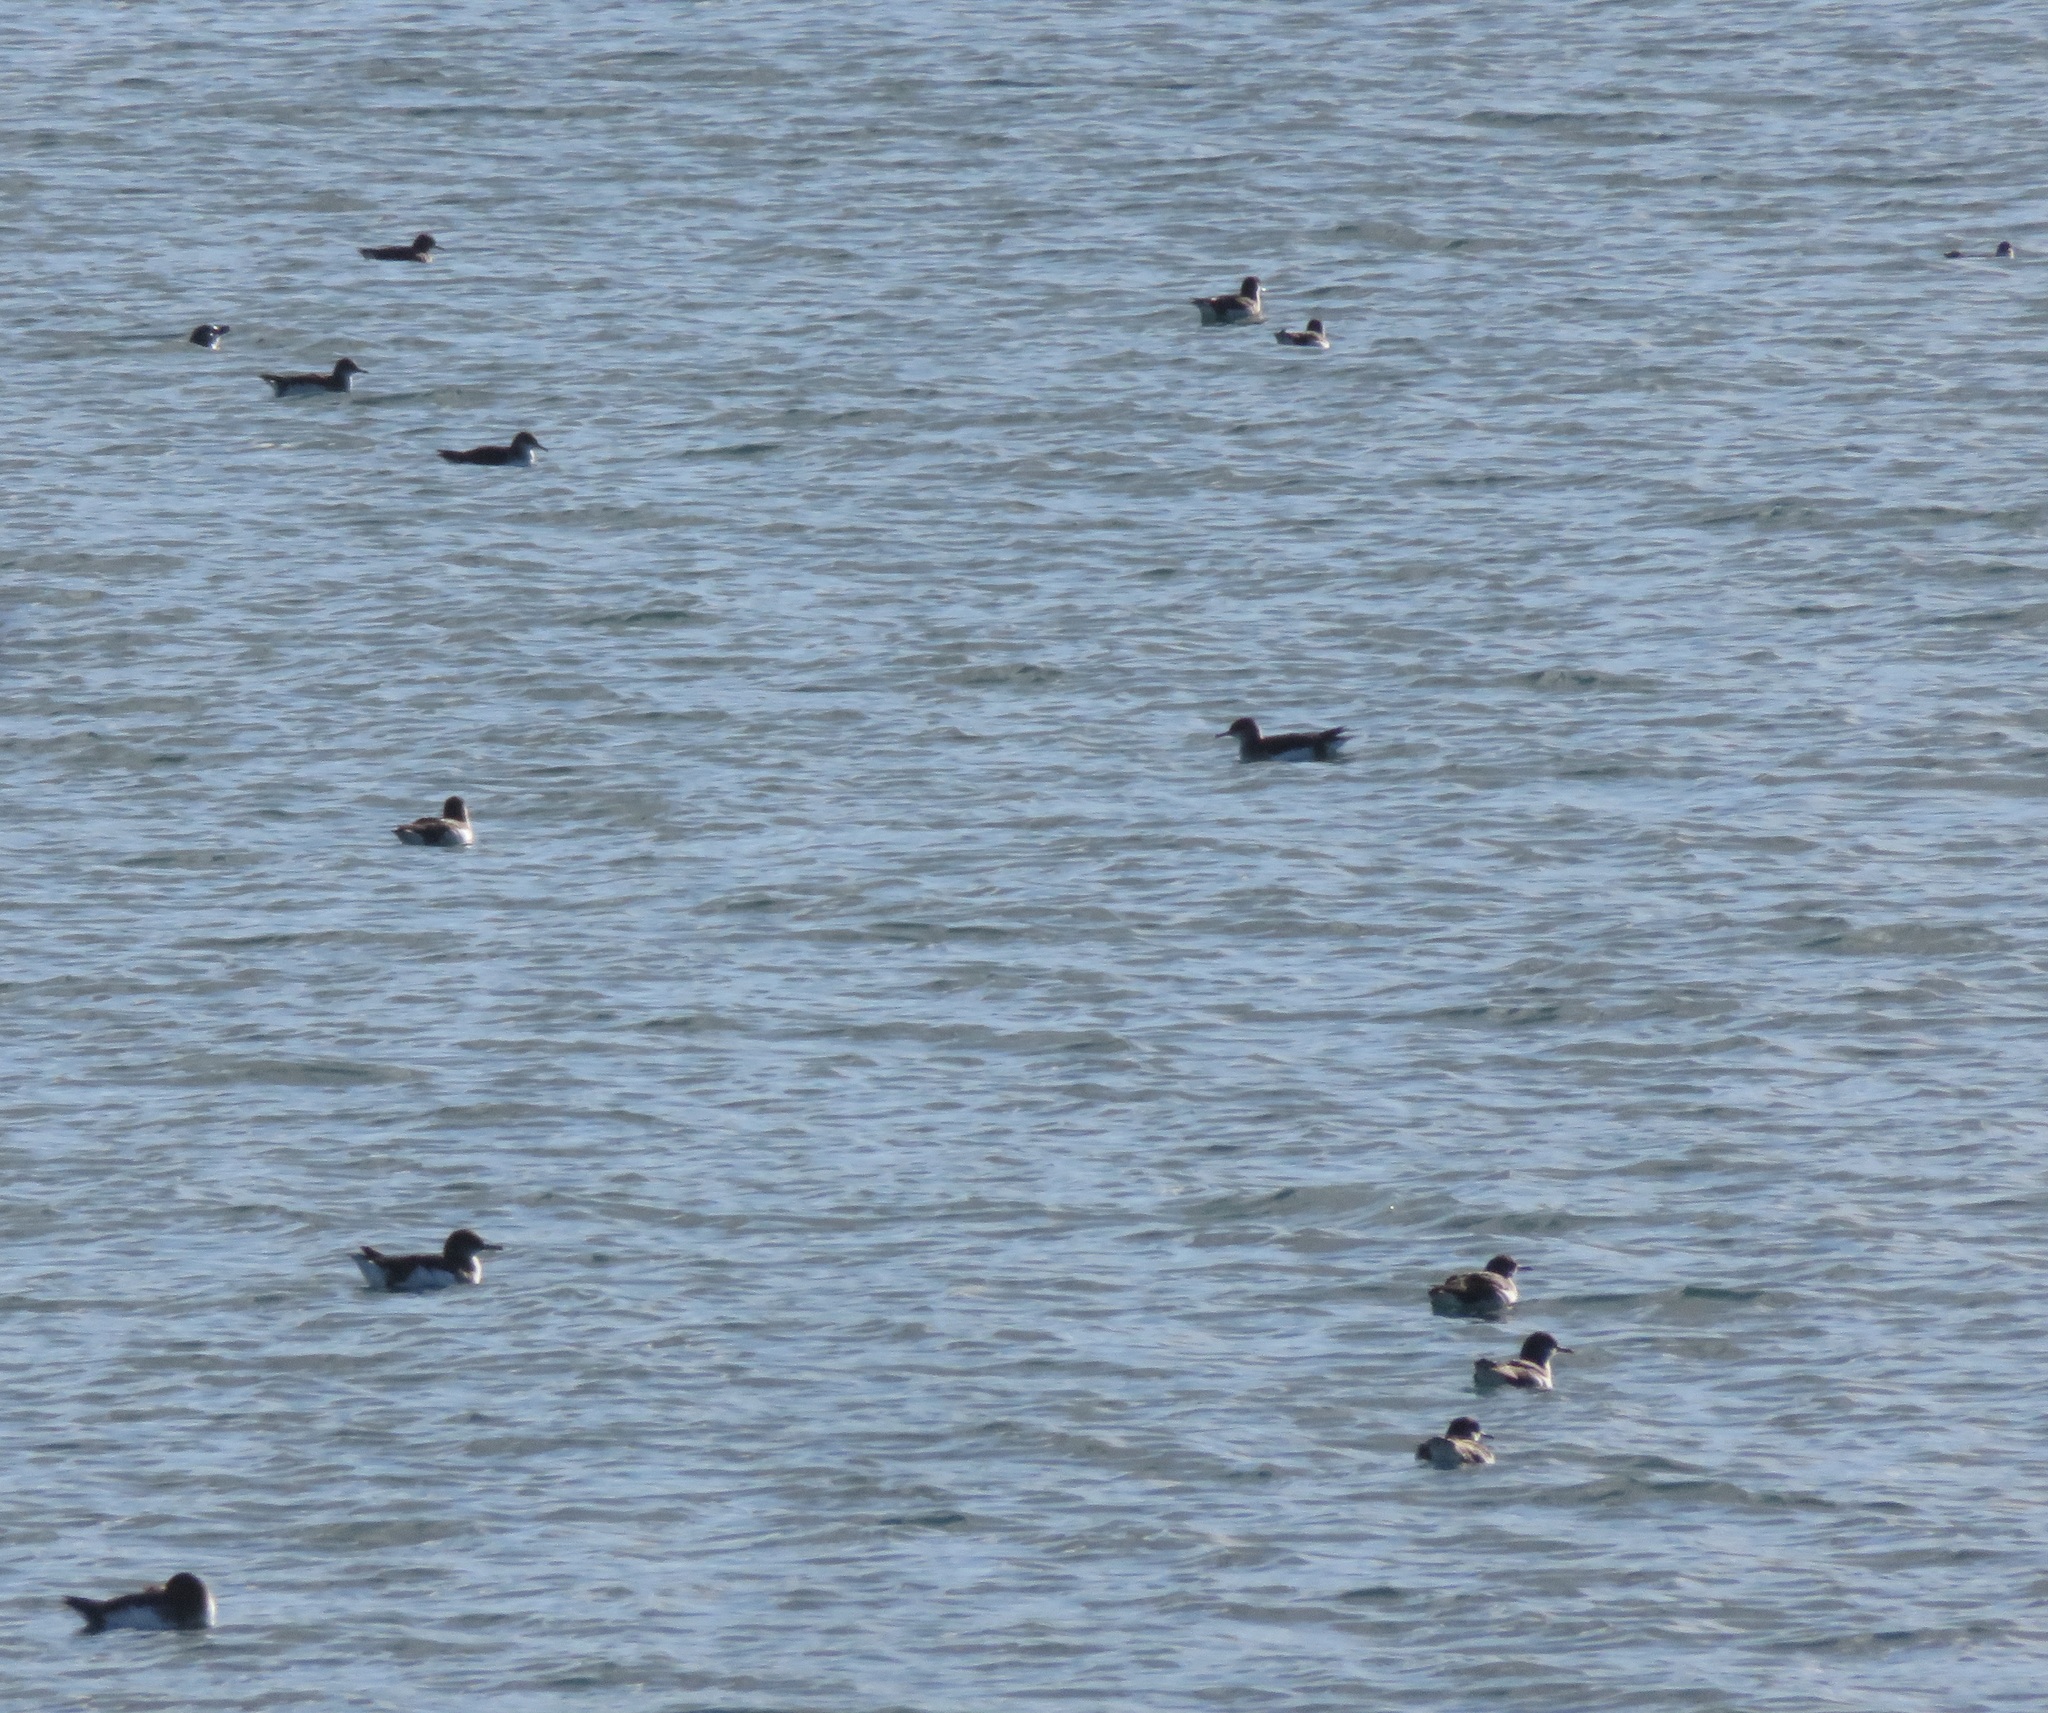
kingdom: Animalia
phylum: Chordata
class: Aves
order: Procellariiformes
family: Procellariidae
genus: Puffinus
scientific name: Puffinus gavia
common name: Fluttering shearwater
